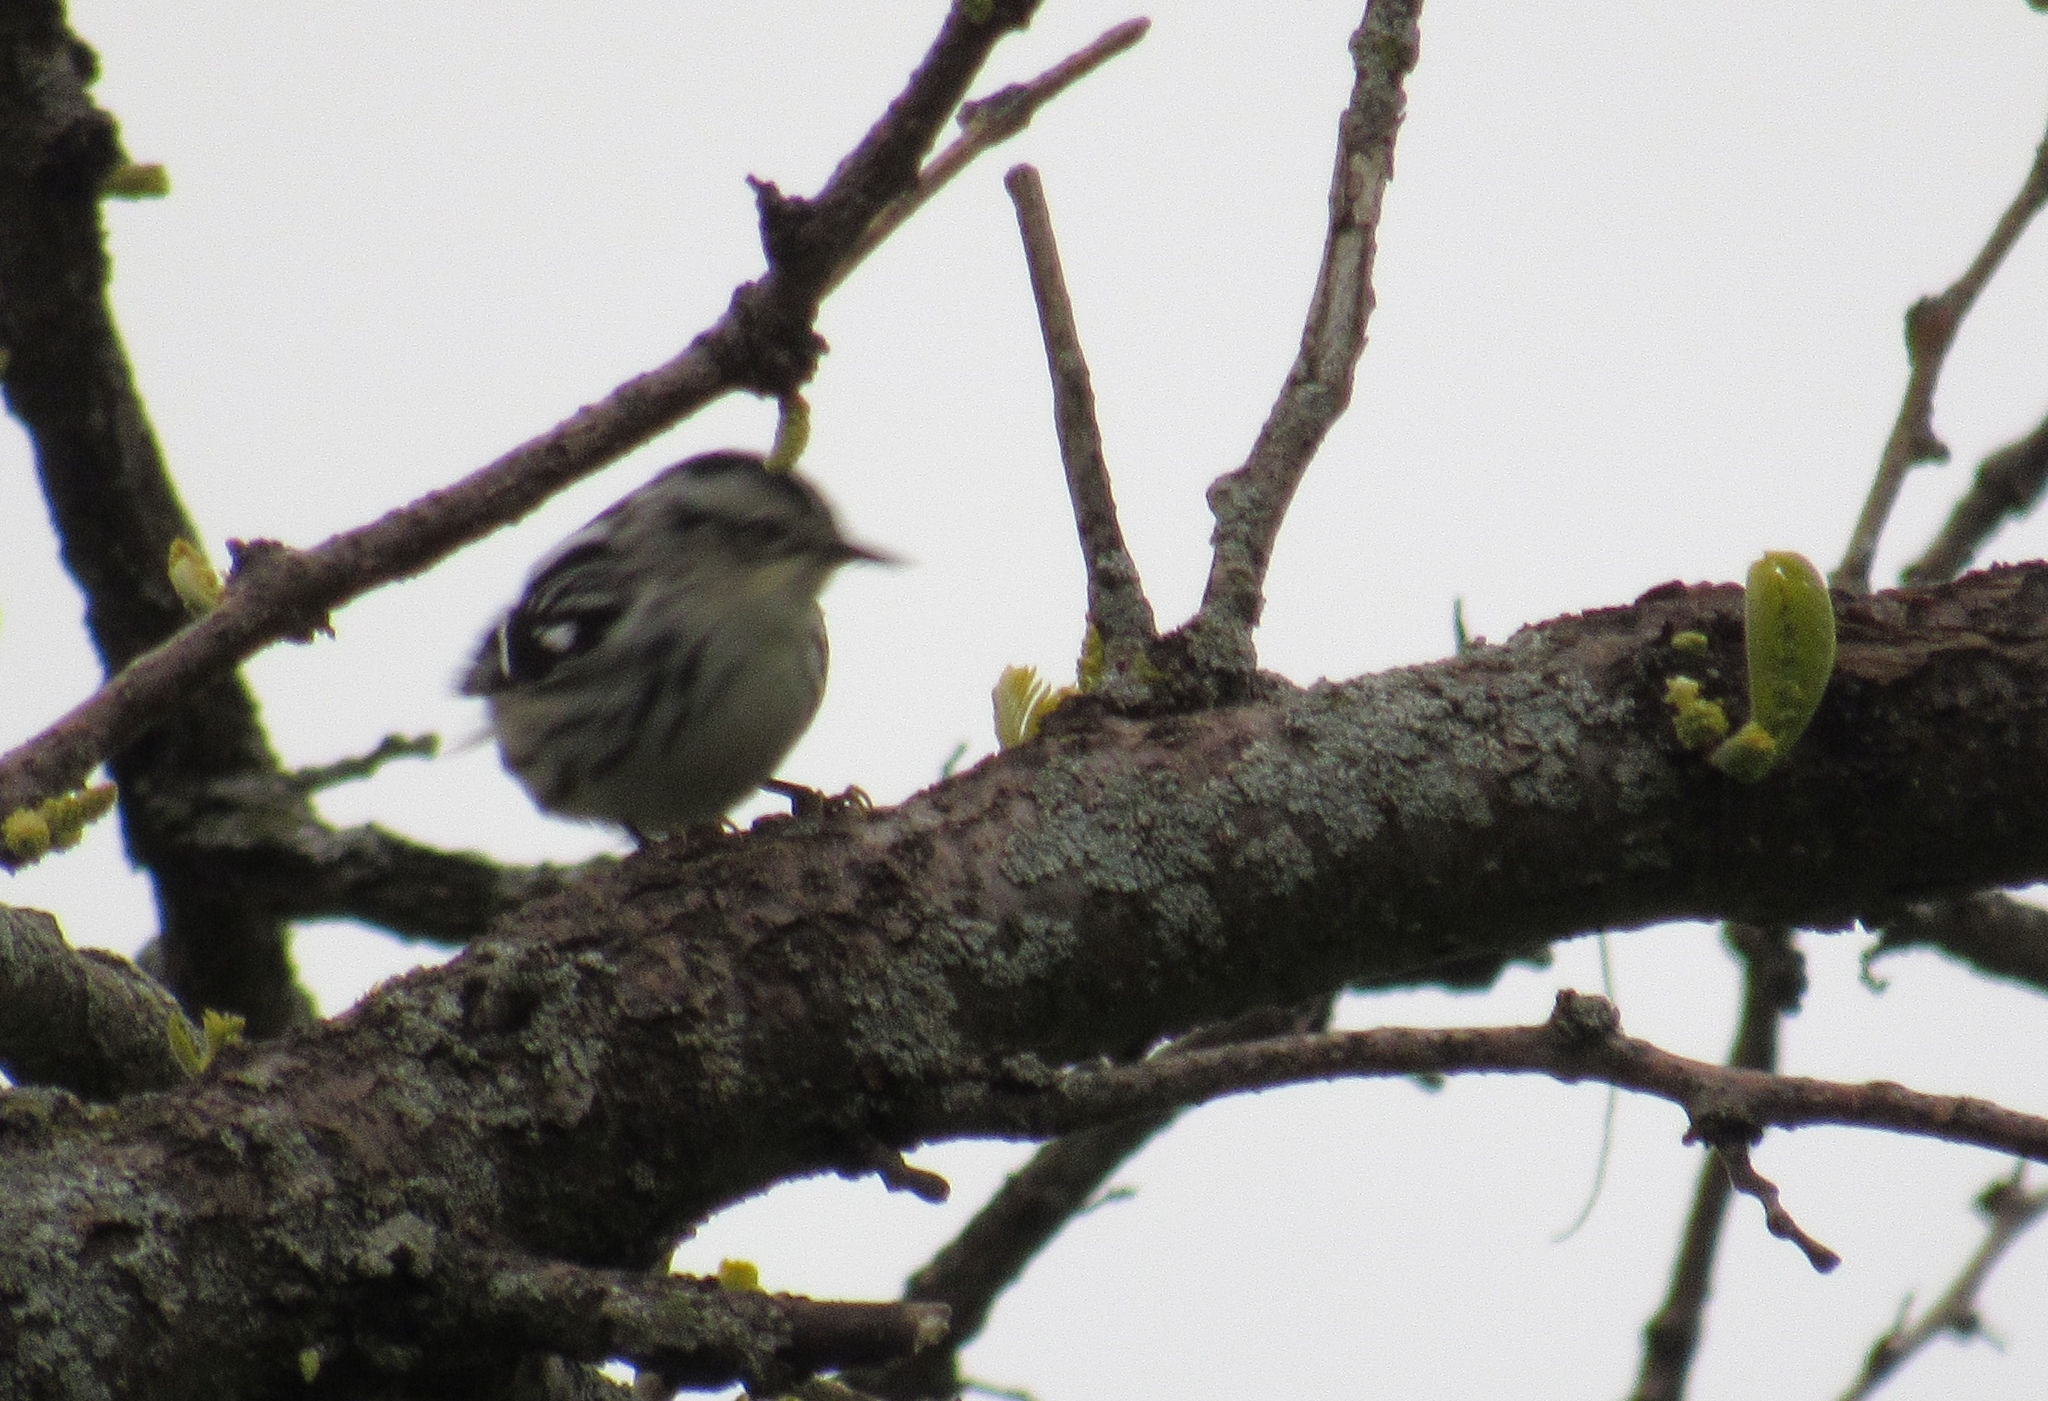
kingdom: Animalia
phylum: Chordata
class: Aves
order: Passeriformes
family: Parulidae
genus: Mniotilta
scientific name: Mniotilta varia
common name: Black-and-white warbler
